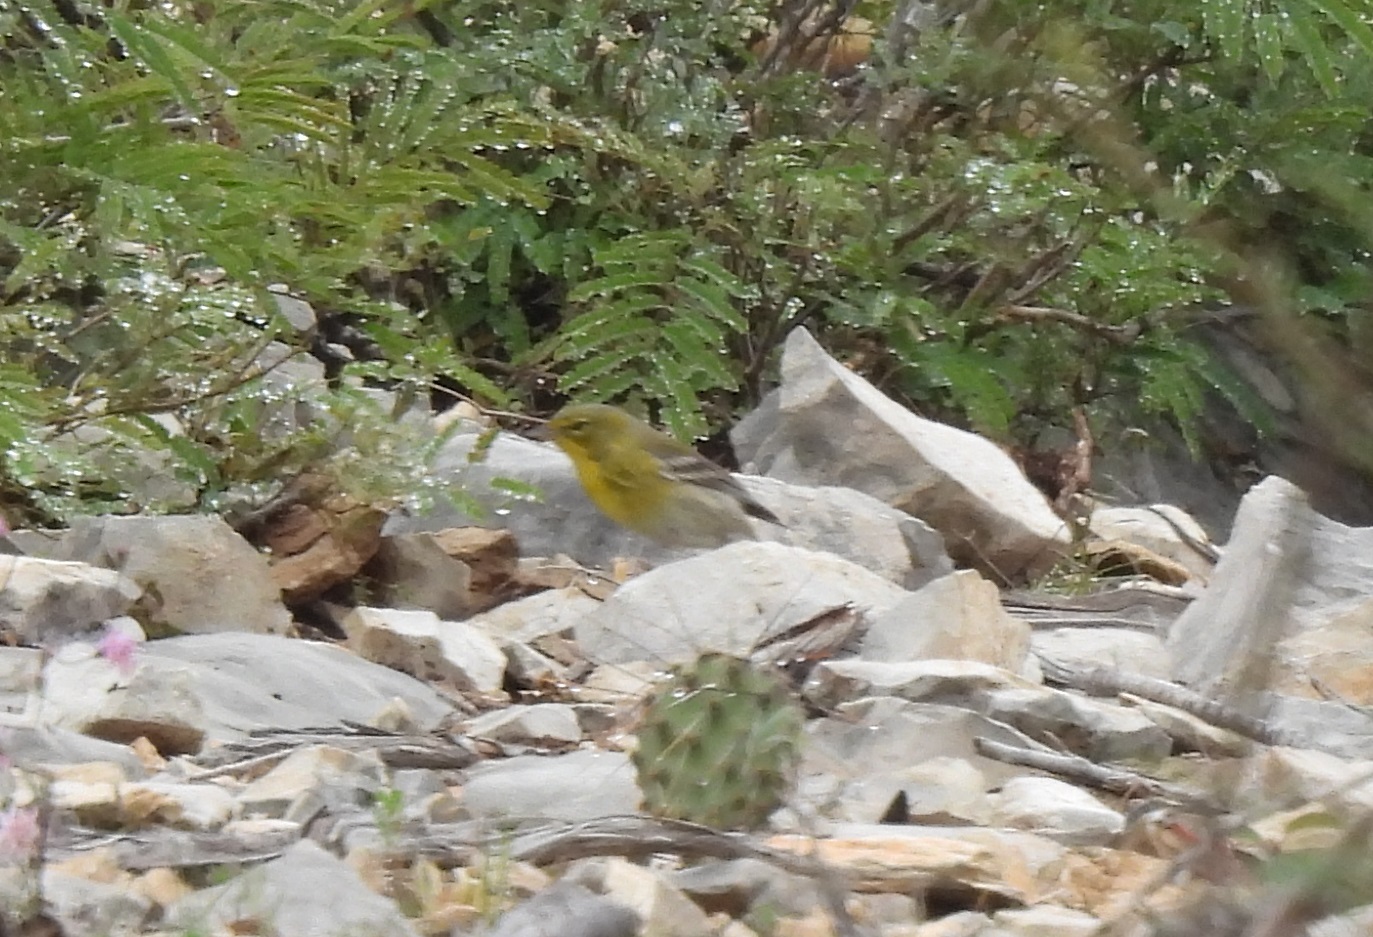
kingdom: Animalia
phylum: Chordata
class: Aves
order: Passeriformes
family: Parulidae
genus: Setophaga
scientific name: Setophaga pinus
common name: Pine warbler
